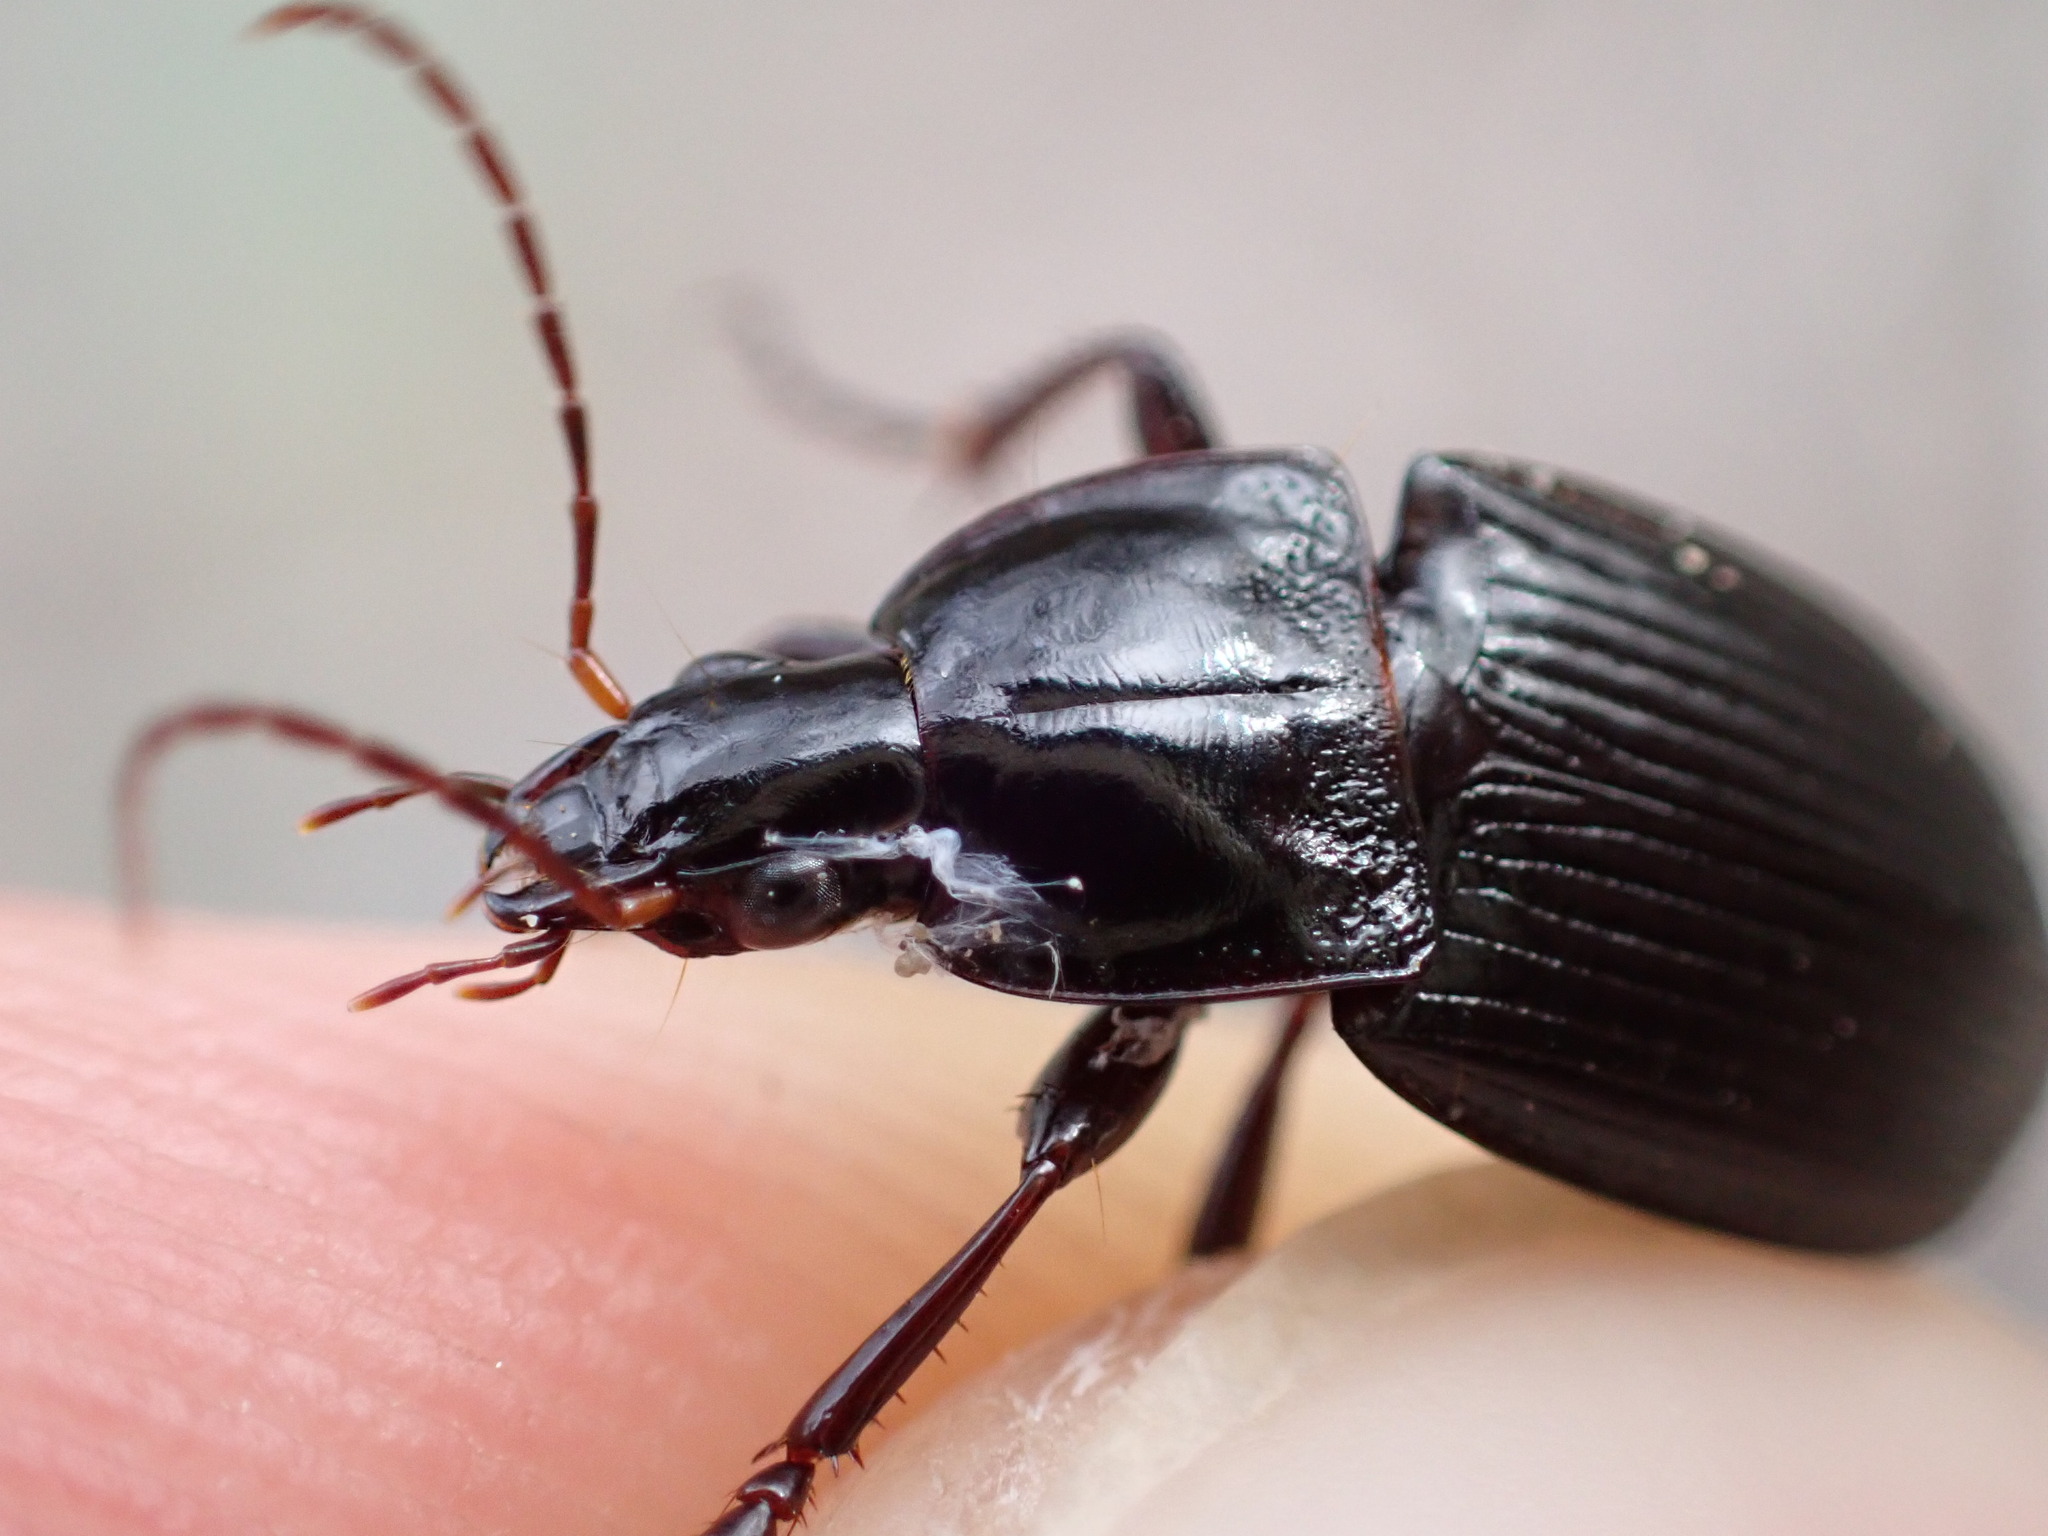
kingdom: Animalia
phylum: Arthropoda
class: Insecta
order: Coleoptera
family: Carabidae
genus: Calathus
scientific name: Calathus fuscipes
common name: Dark-footed harp ground beetle
